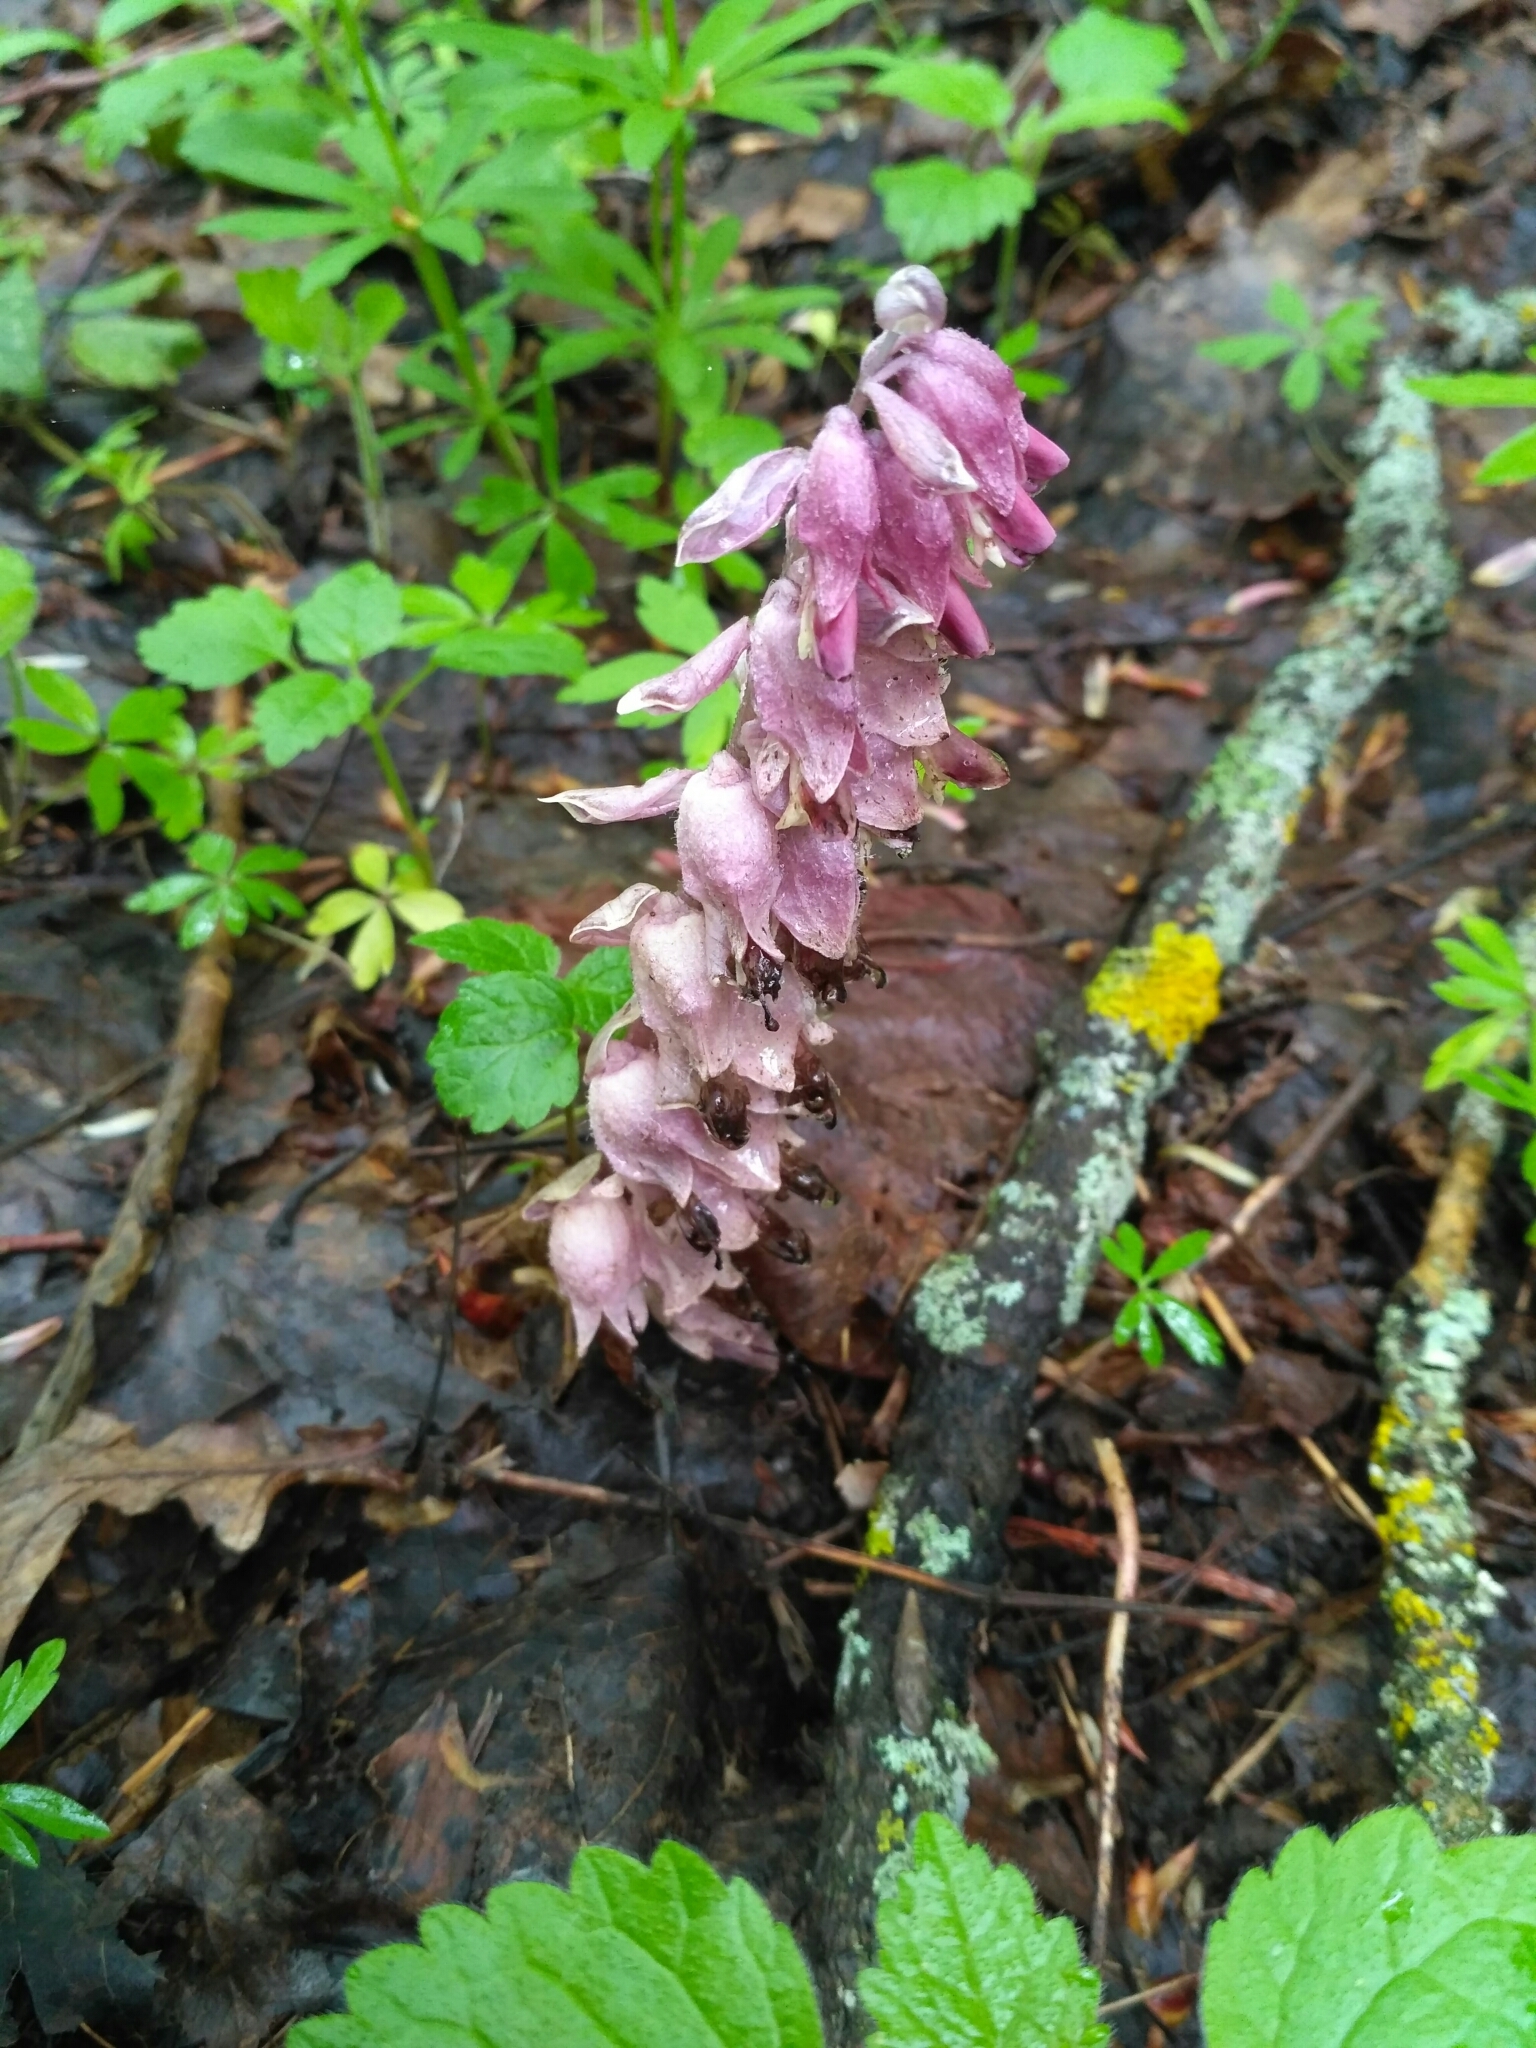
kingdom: Plantae
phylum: Tracheophyta
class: Magnoliopsida
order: Lamiales
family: Orobanchaceae
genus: Lathraea
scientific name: Lathraea squamaria
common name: Toothwort
